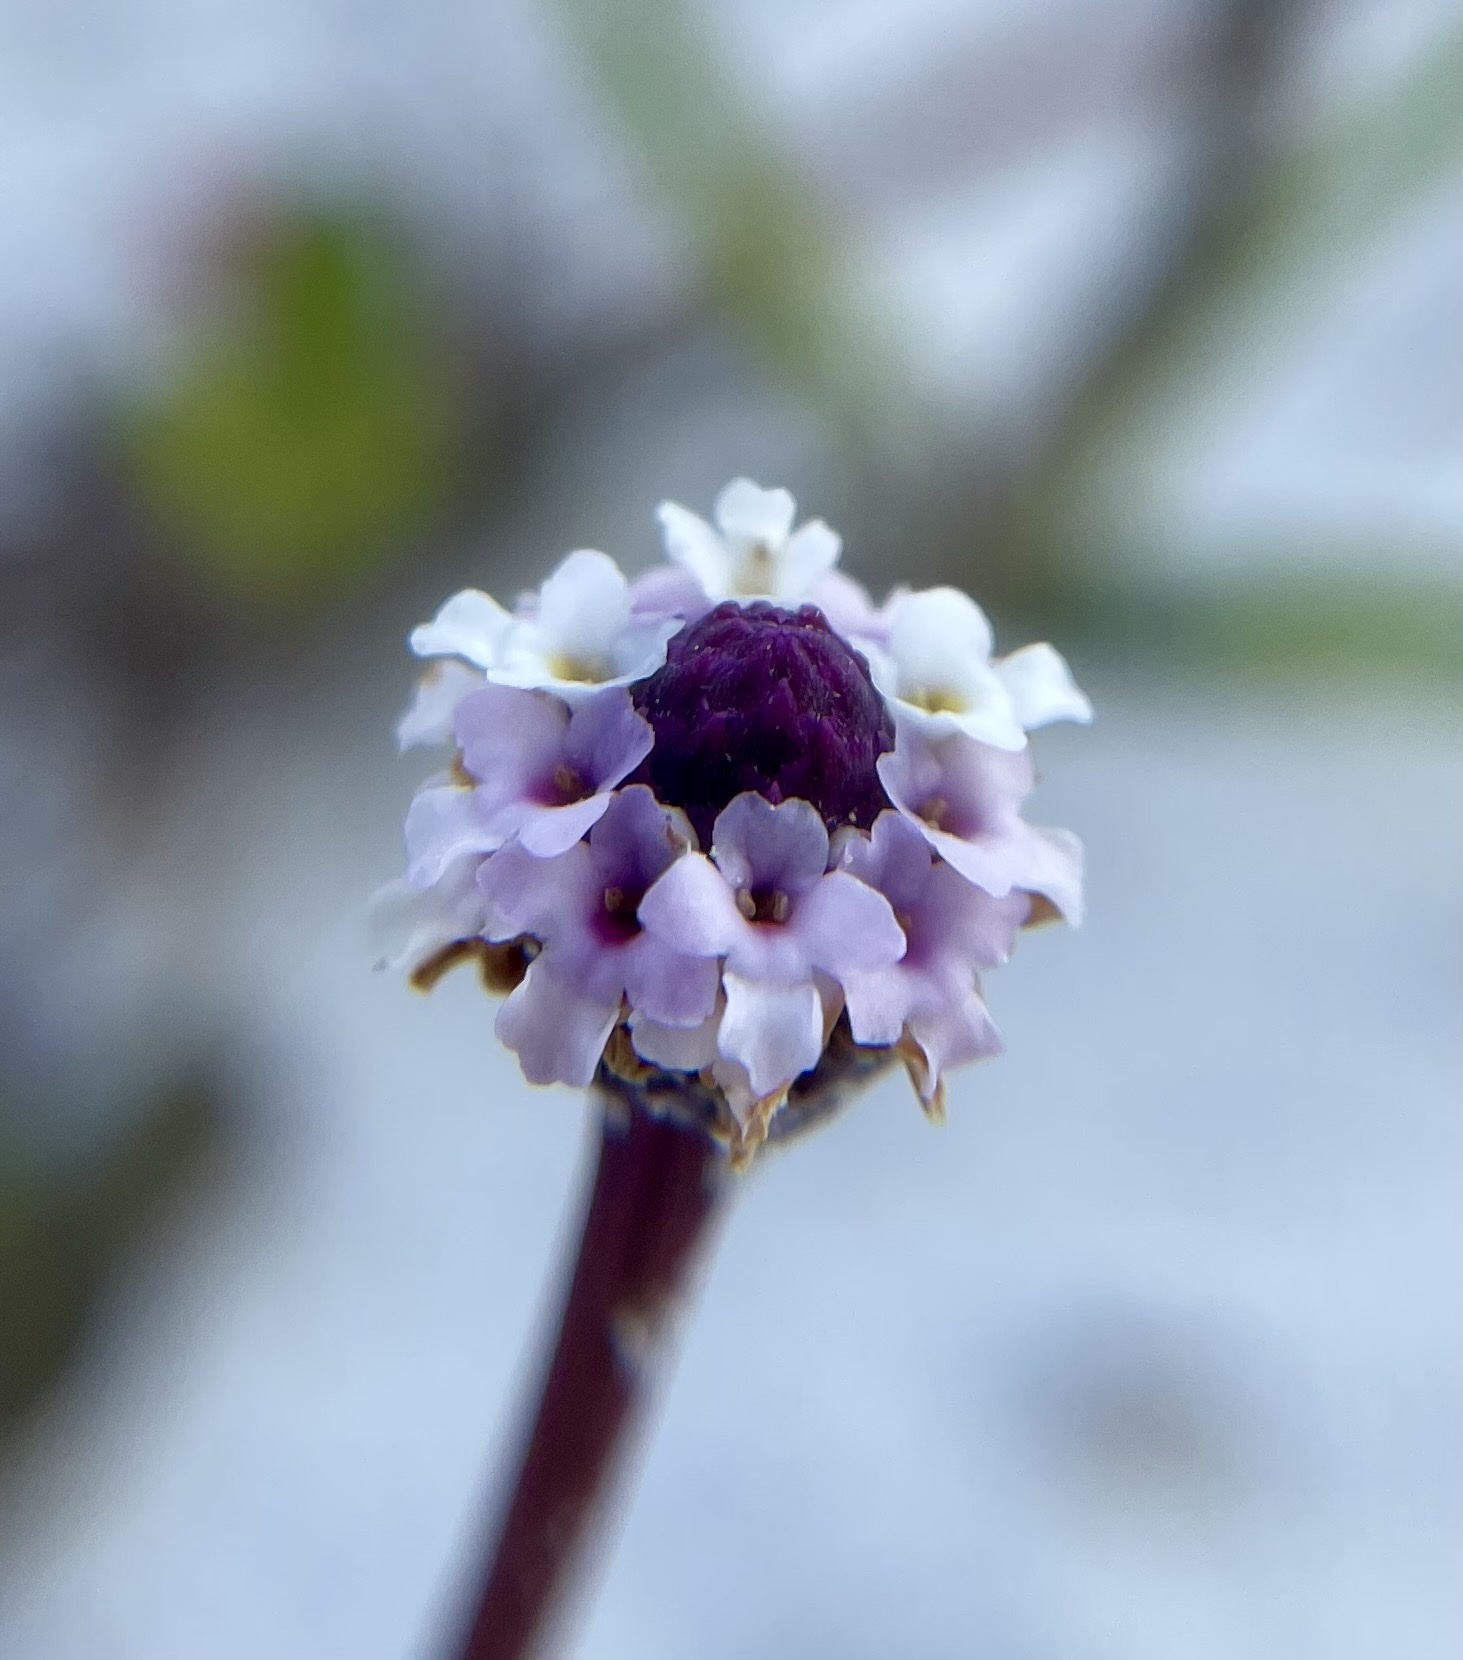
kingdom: Plantae
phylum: Tracheophyta
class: Magnoliopsida
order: Lamiales
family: Verbenaceae
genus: Phyla
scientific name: Phyla nodiflora
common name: Frogfruit
